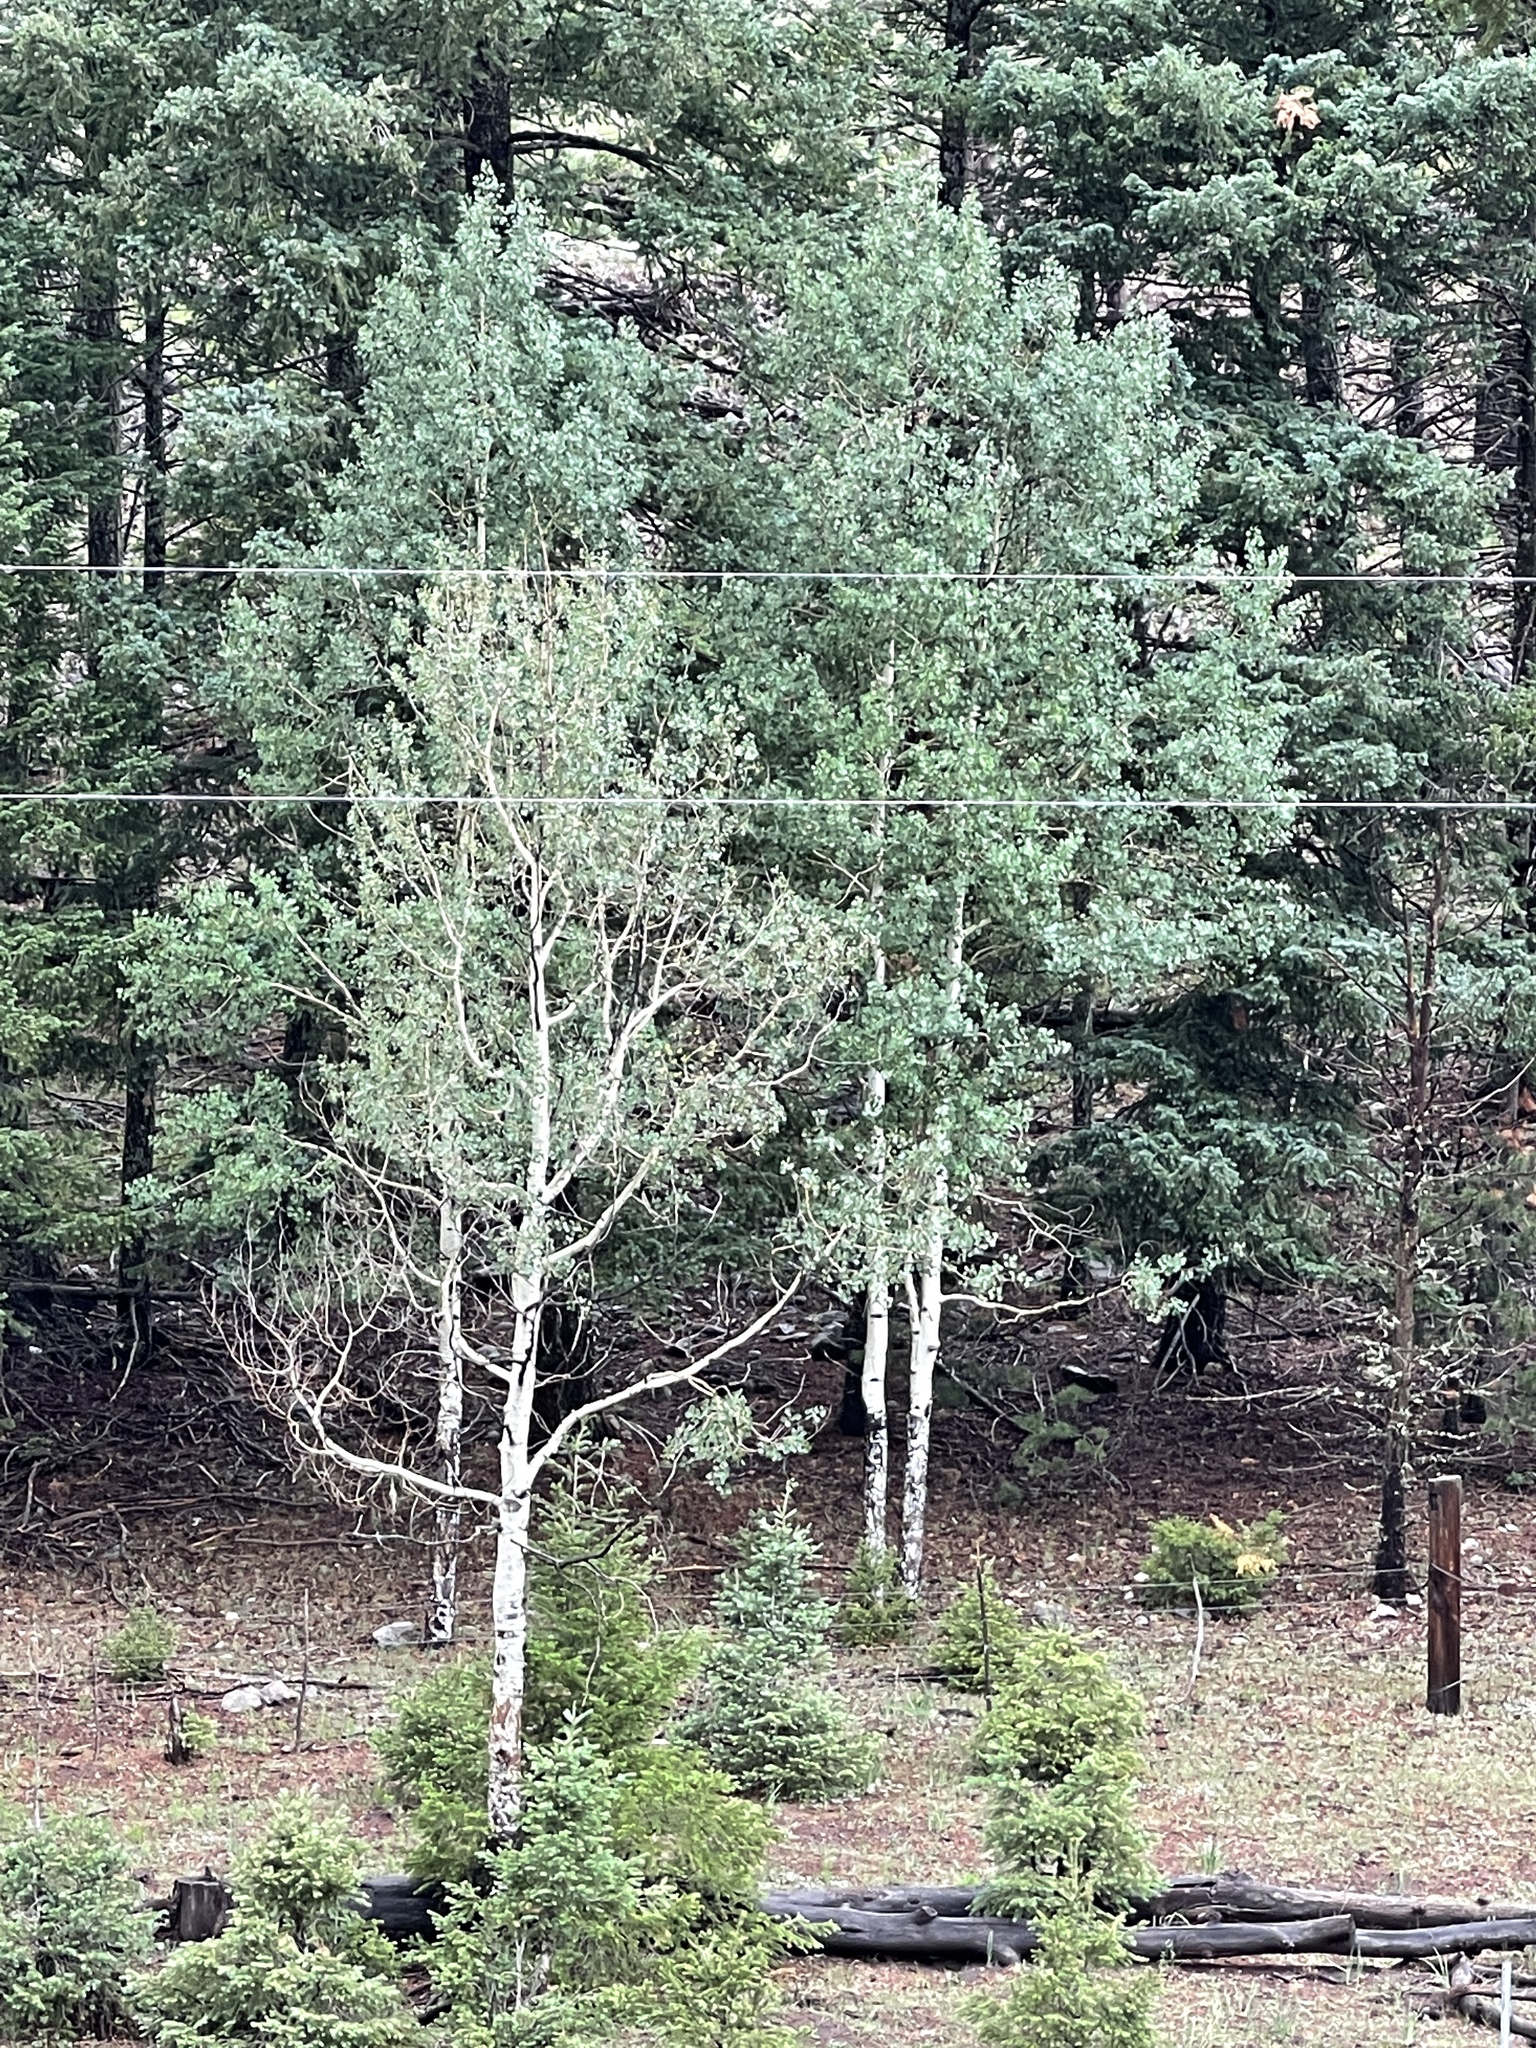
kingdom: Plantae
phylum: Tracheophyta
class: Magnoliopsida
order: Malpighiales
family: Salicaceae
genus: Populus
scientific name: Populus tremuloides
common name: Quaking aspen
